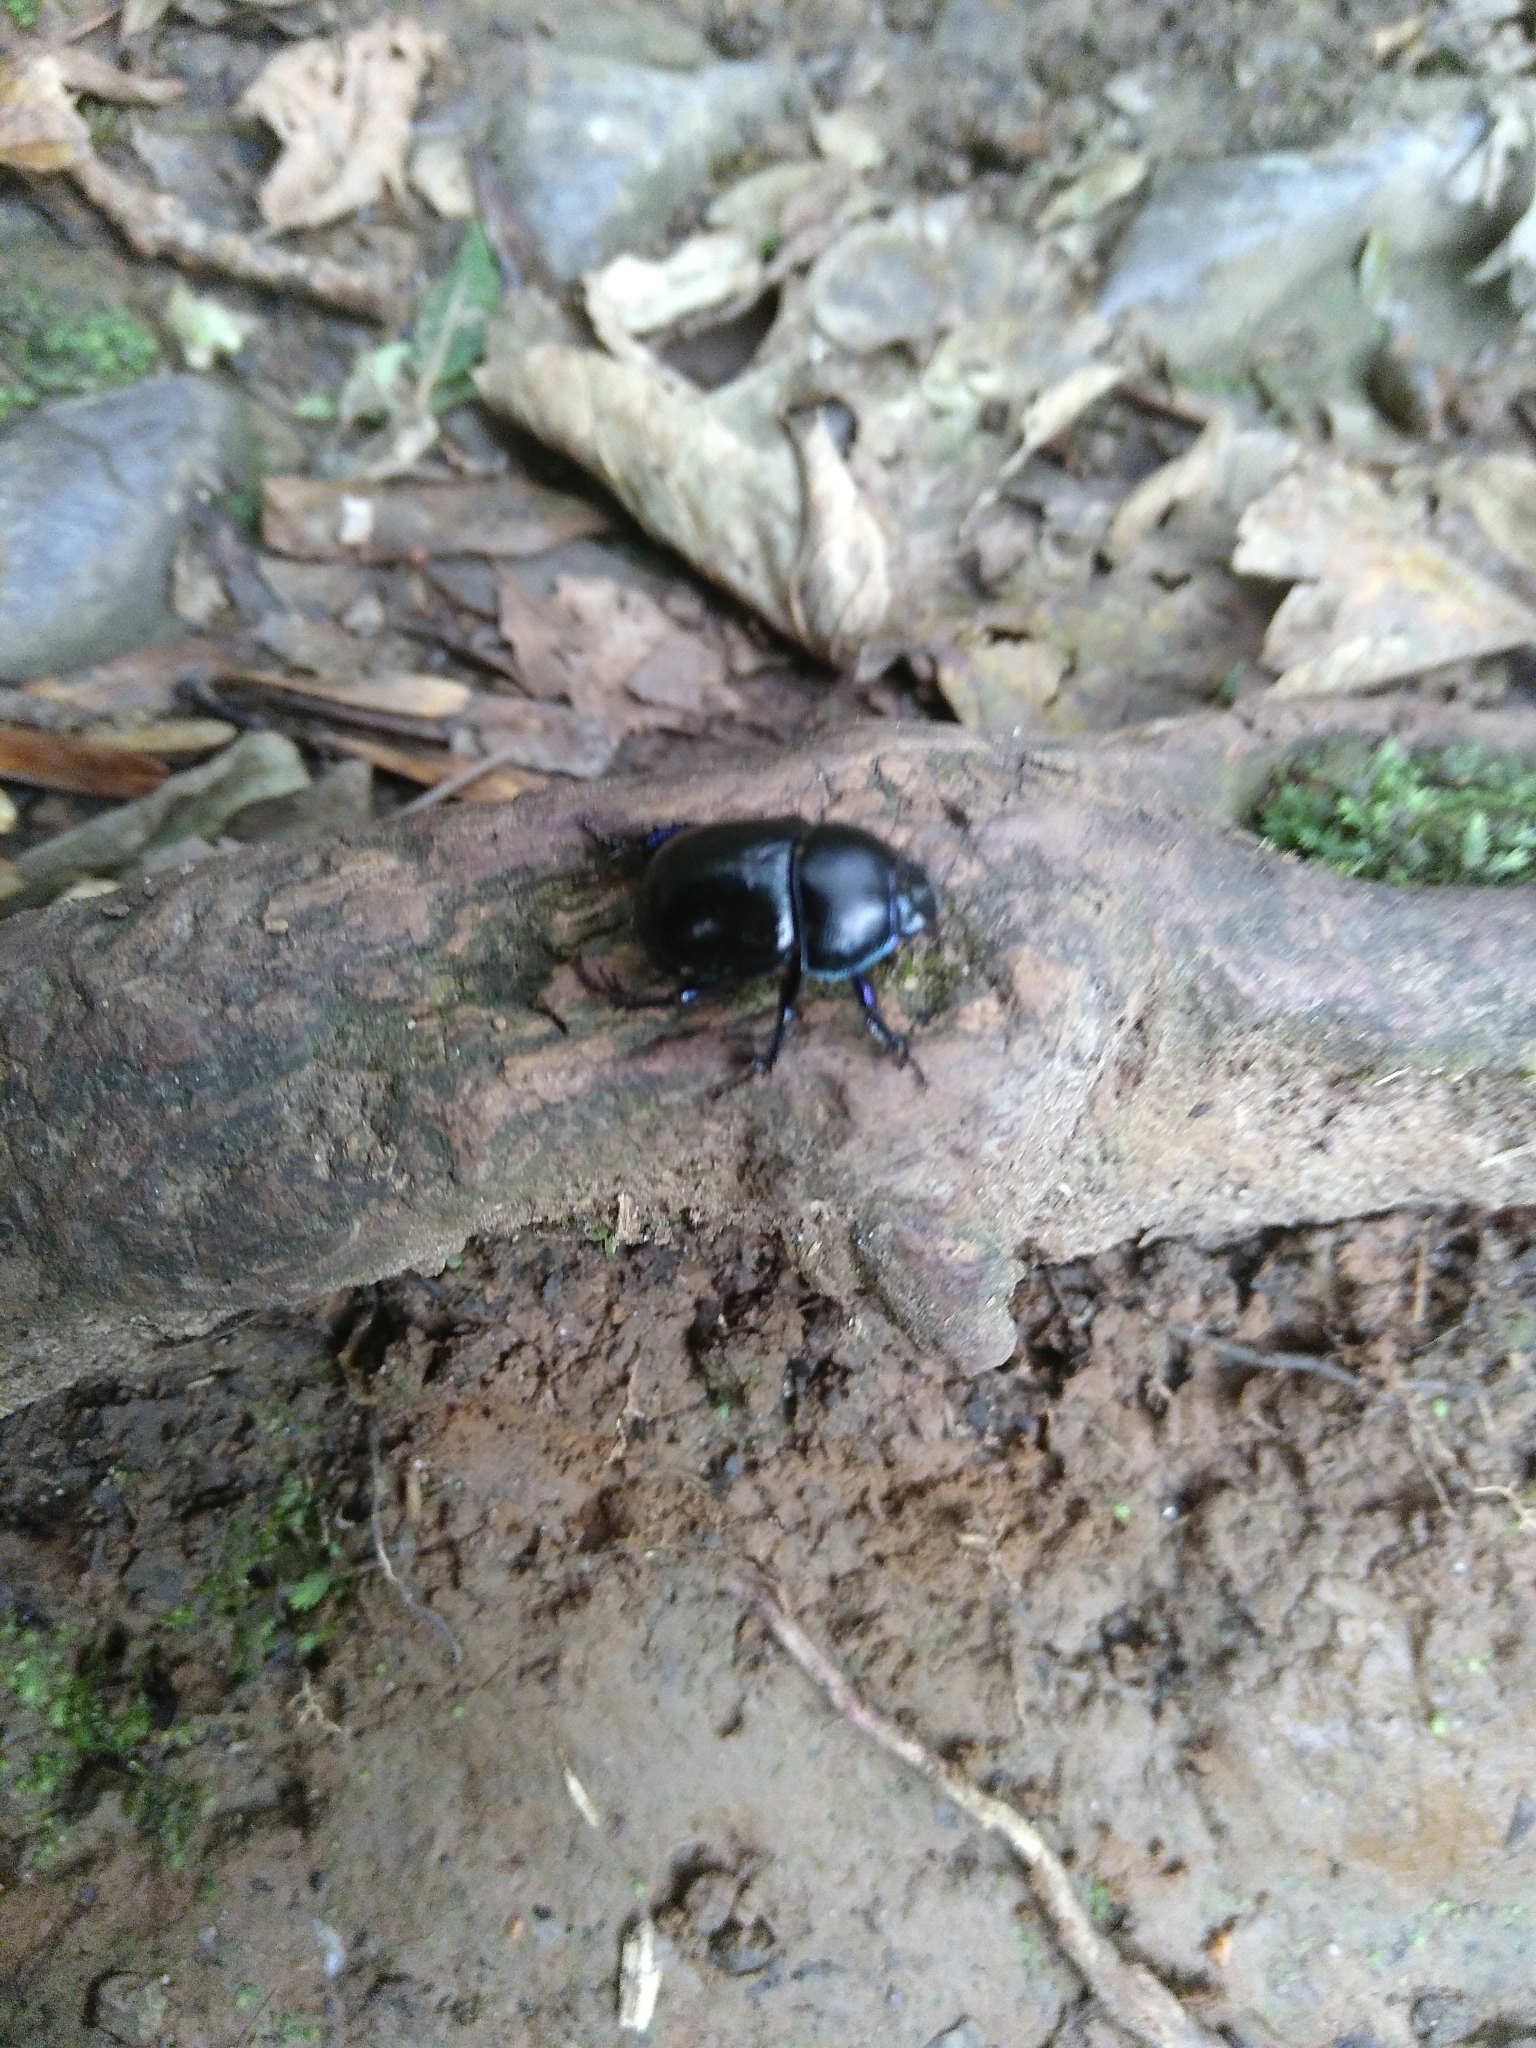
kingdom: Animalia
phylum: Arthropoda
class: Insecta
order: Coleoptera
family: Geotrupidae
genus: Anoplotrupes
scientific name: Anoplotrupes stercorosus
